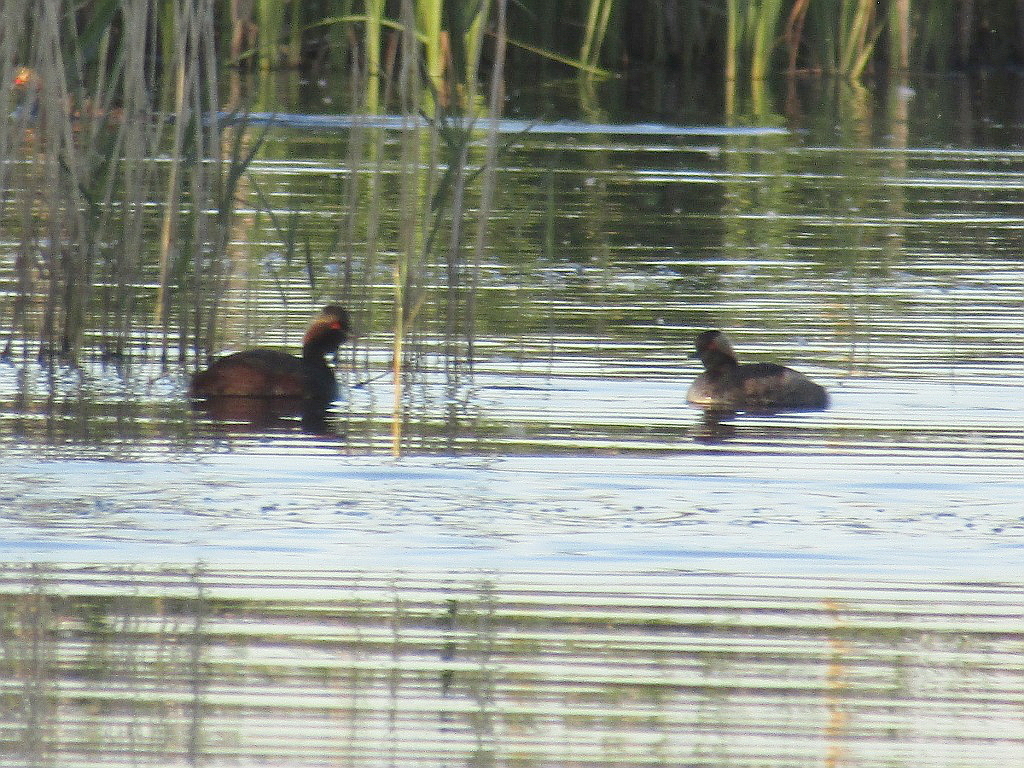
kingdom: Animalia
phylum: Chordata
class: Aves
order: Podicipediformes
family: Podicipedidae
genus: Podiceps
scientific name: Podiceps nigricollis
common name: Black-necked grebe
